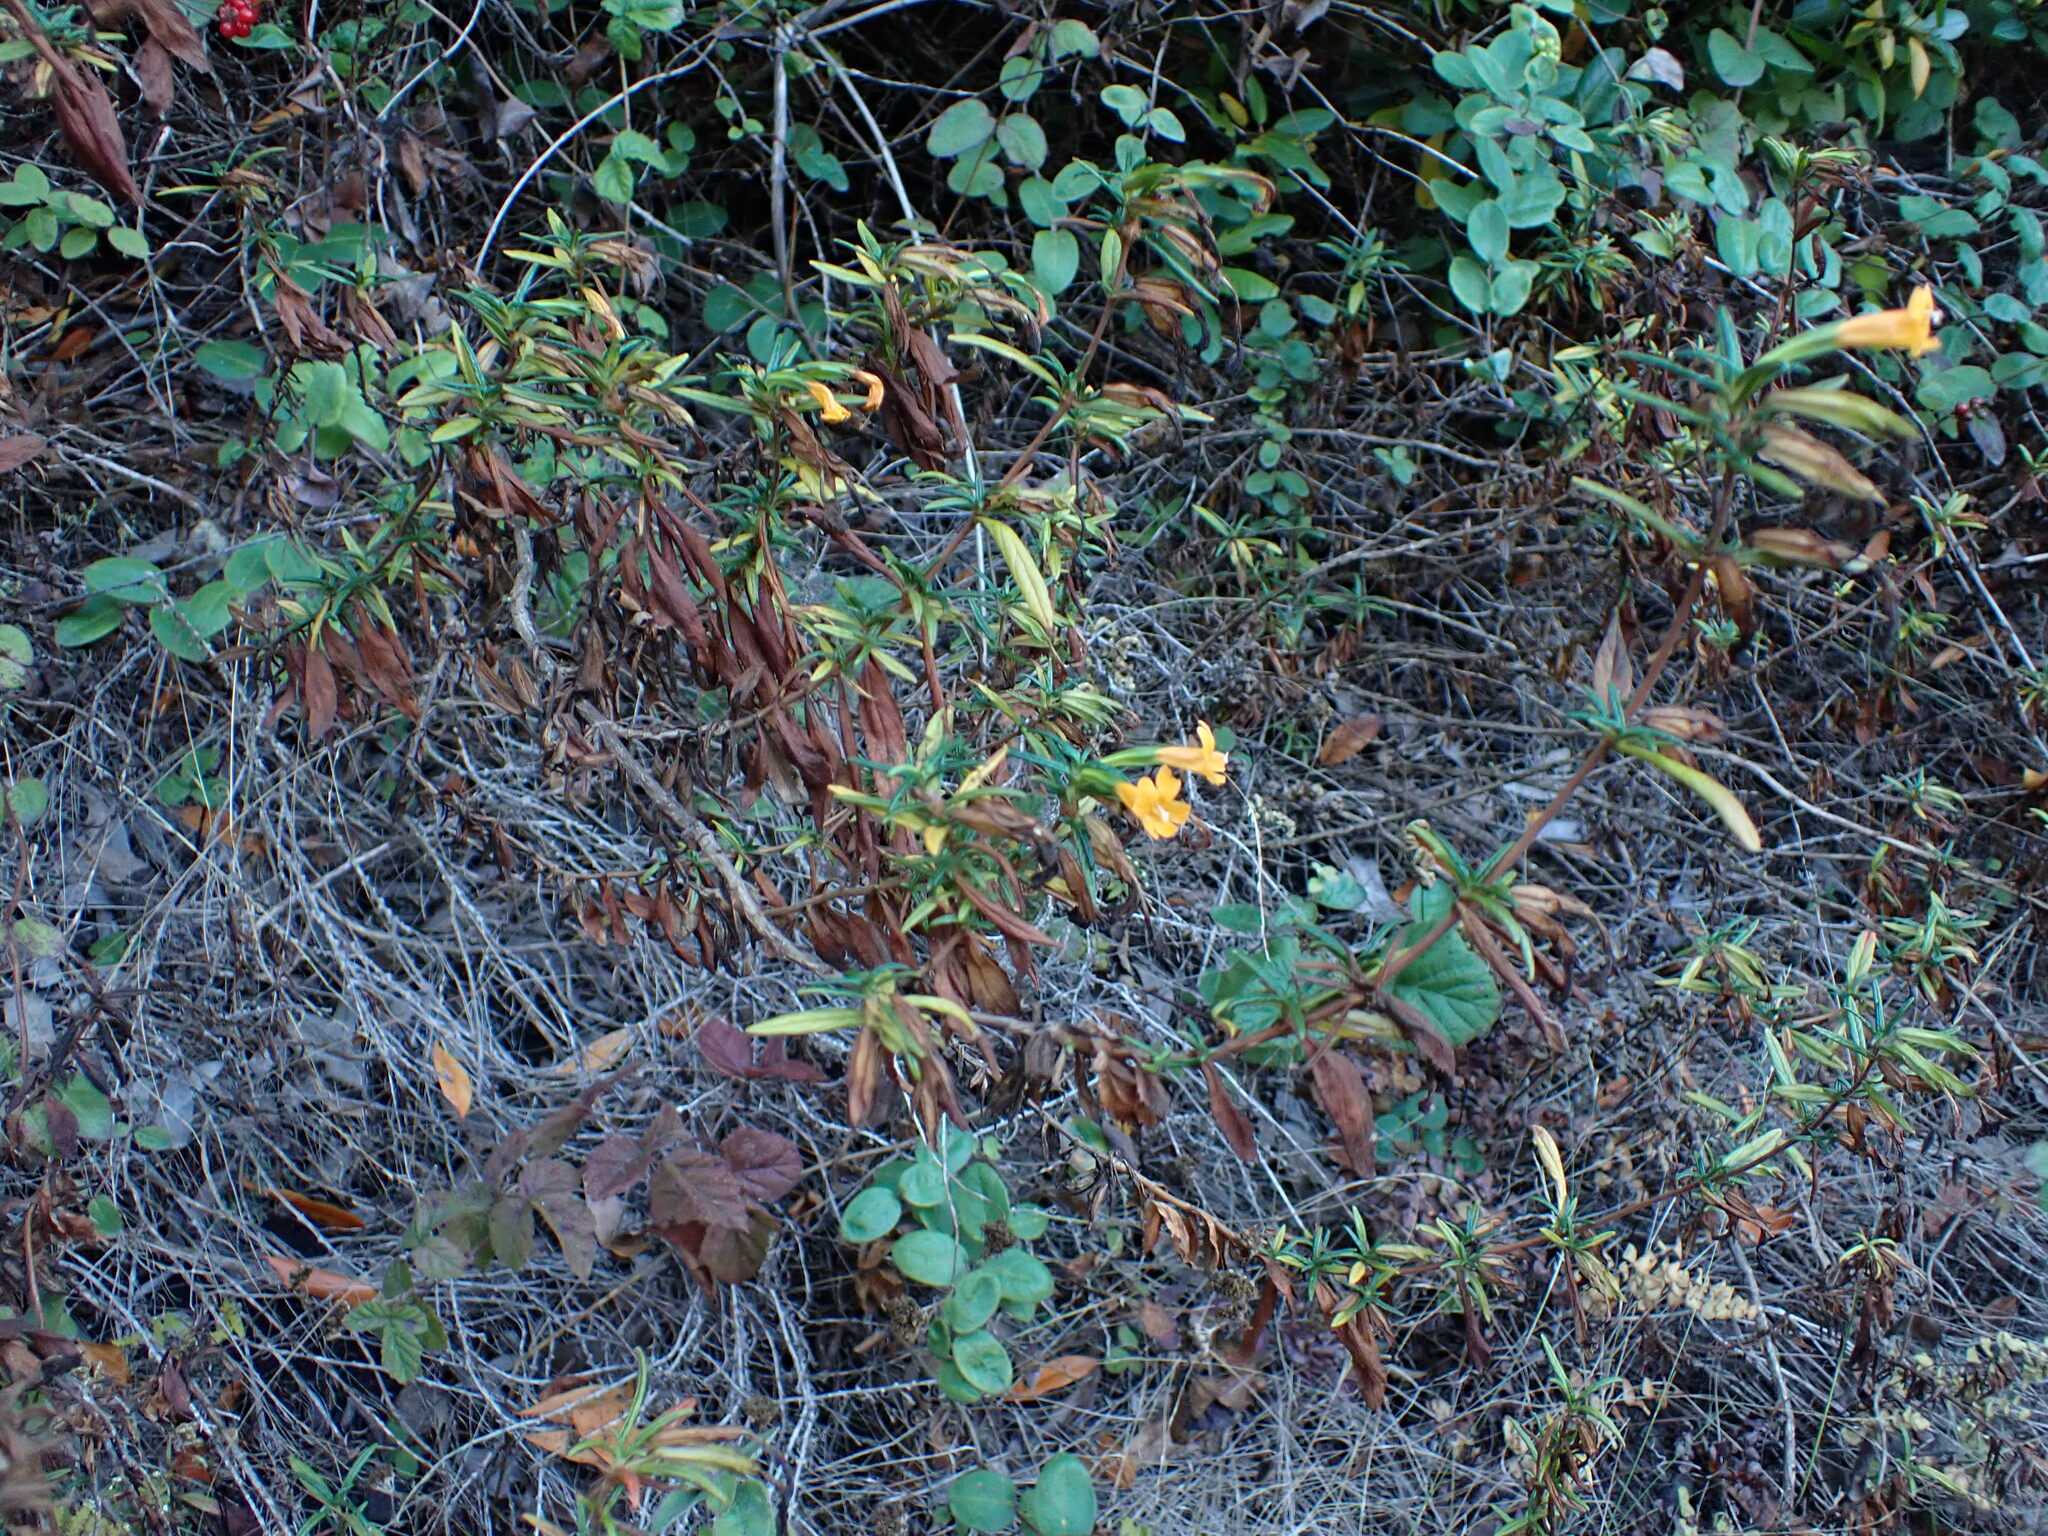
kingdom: Plantae
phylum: Tracheophyta
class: Magnoliopsida
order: Lamiales
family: Phrymaceae
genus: Diplacus
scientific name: Diplacus aurantiacus
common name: Bush monkey-flower
